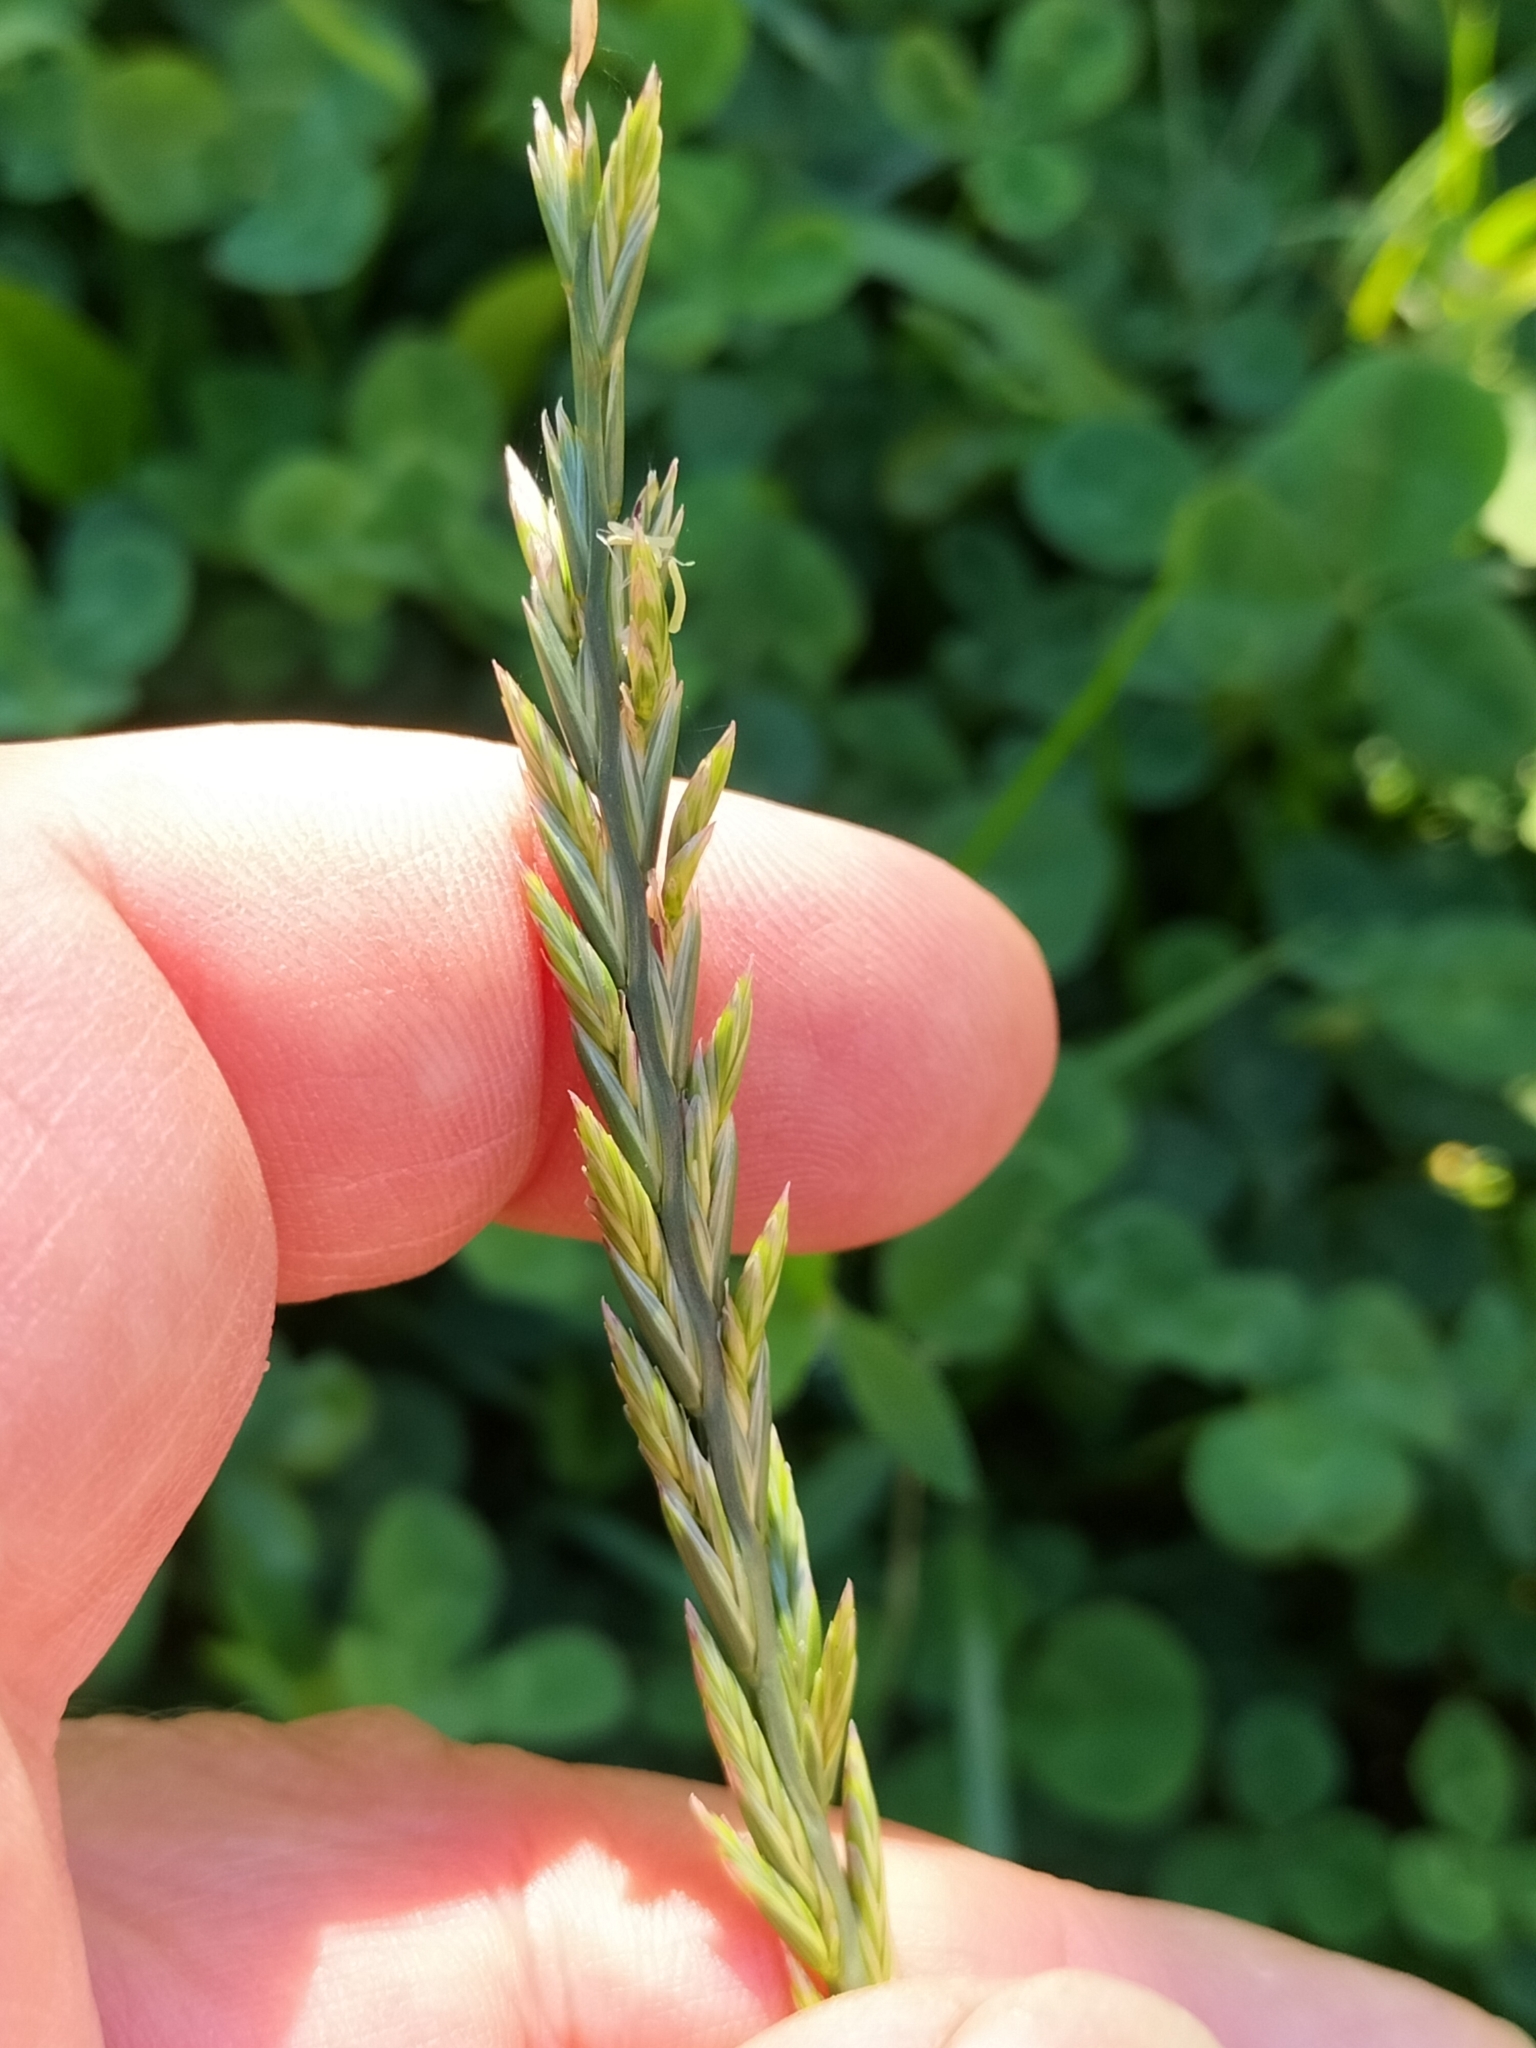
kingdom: Plantae
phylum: Tracheophyta
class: Liliopsida
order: Poales
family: Poaceae
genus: Lolium
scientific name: Lolium perenne
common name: Perennial ryegrass
